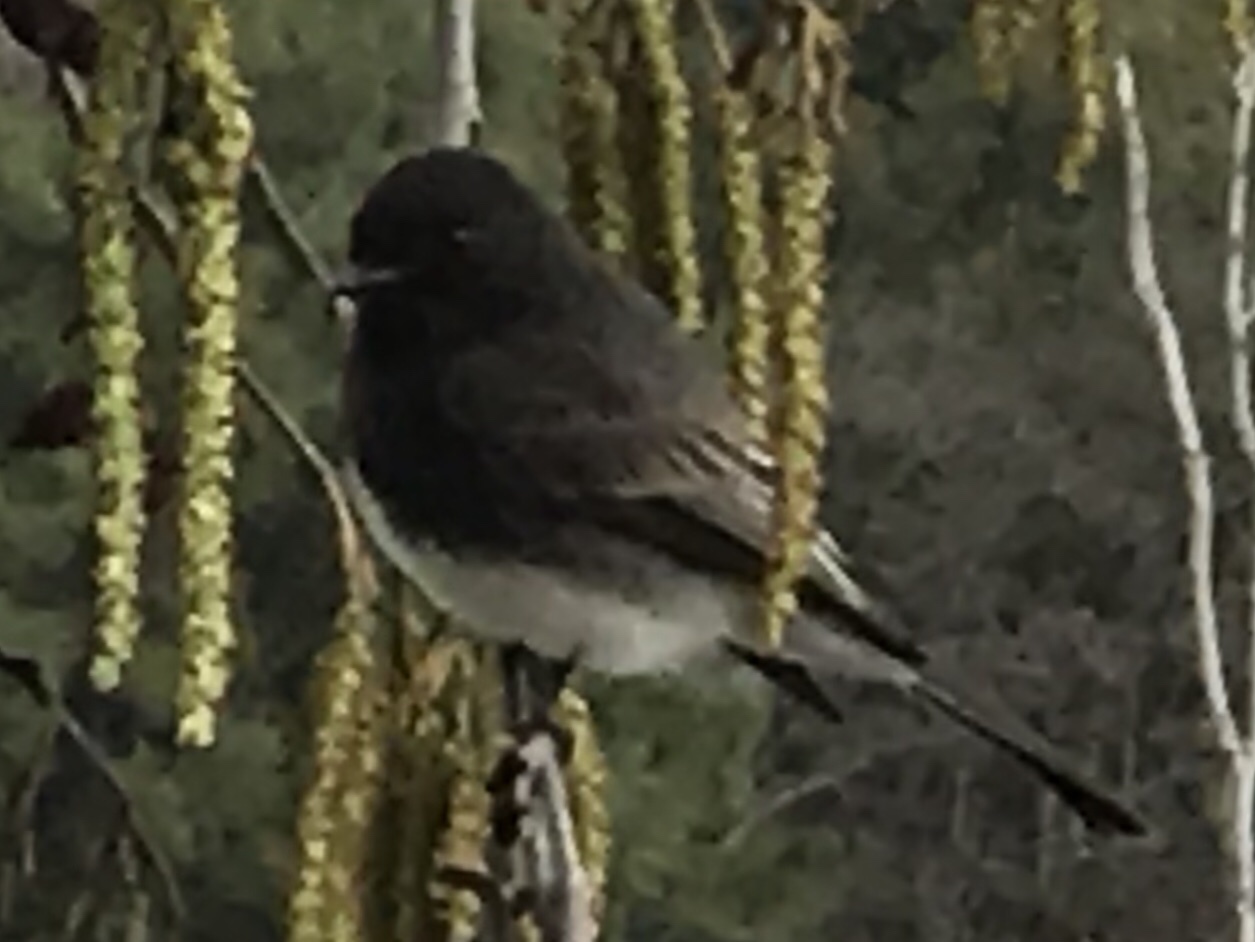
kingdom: Animalia
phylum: Chordata
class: Aves
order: Passeriformes
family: Tyrannidae
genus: Sayornis
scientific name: Sayornis nigricans
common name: Black phoebe
